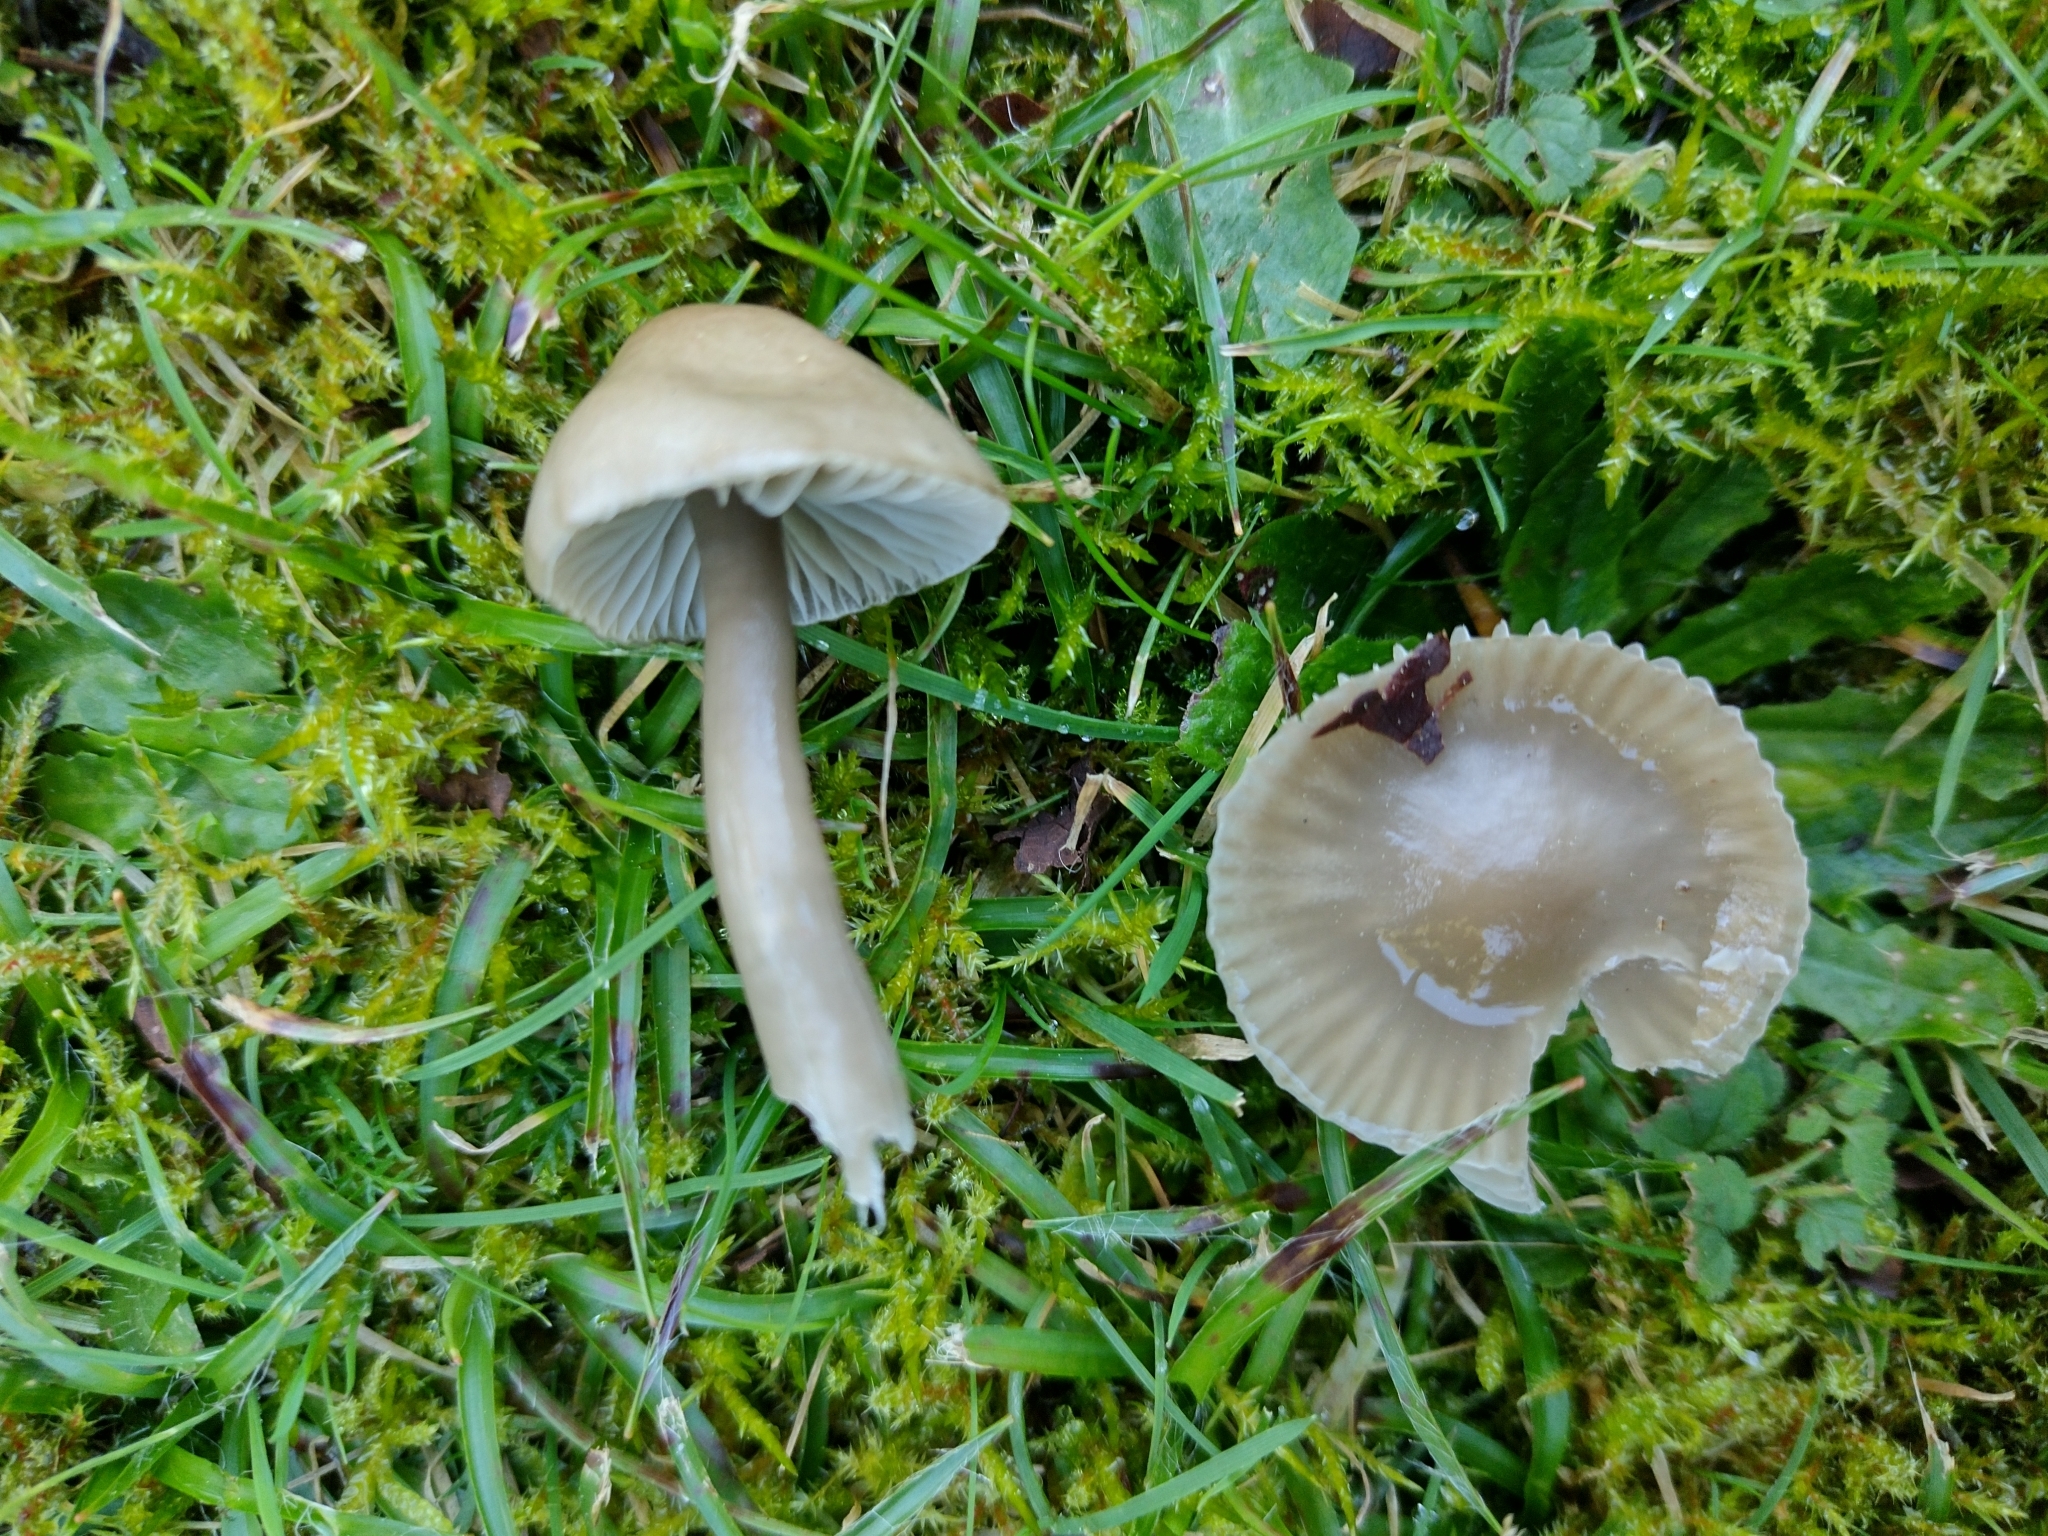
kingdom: Fungi
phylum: Basidiomycota
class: Agaricomycetes
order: Agaricales
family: Hygrophoraceae
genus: Gliophorus
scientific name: Gliophorus irrigatus
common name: Slimy waxcap
